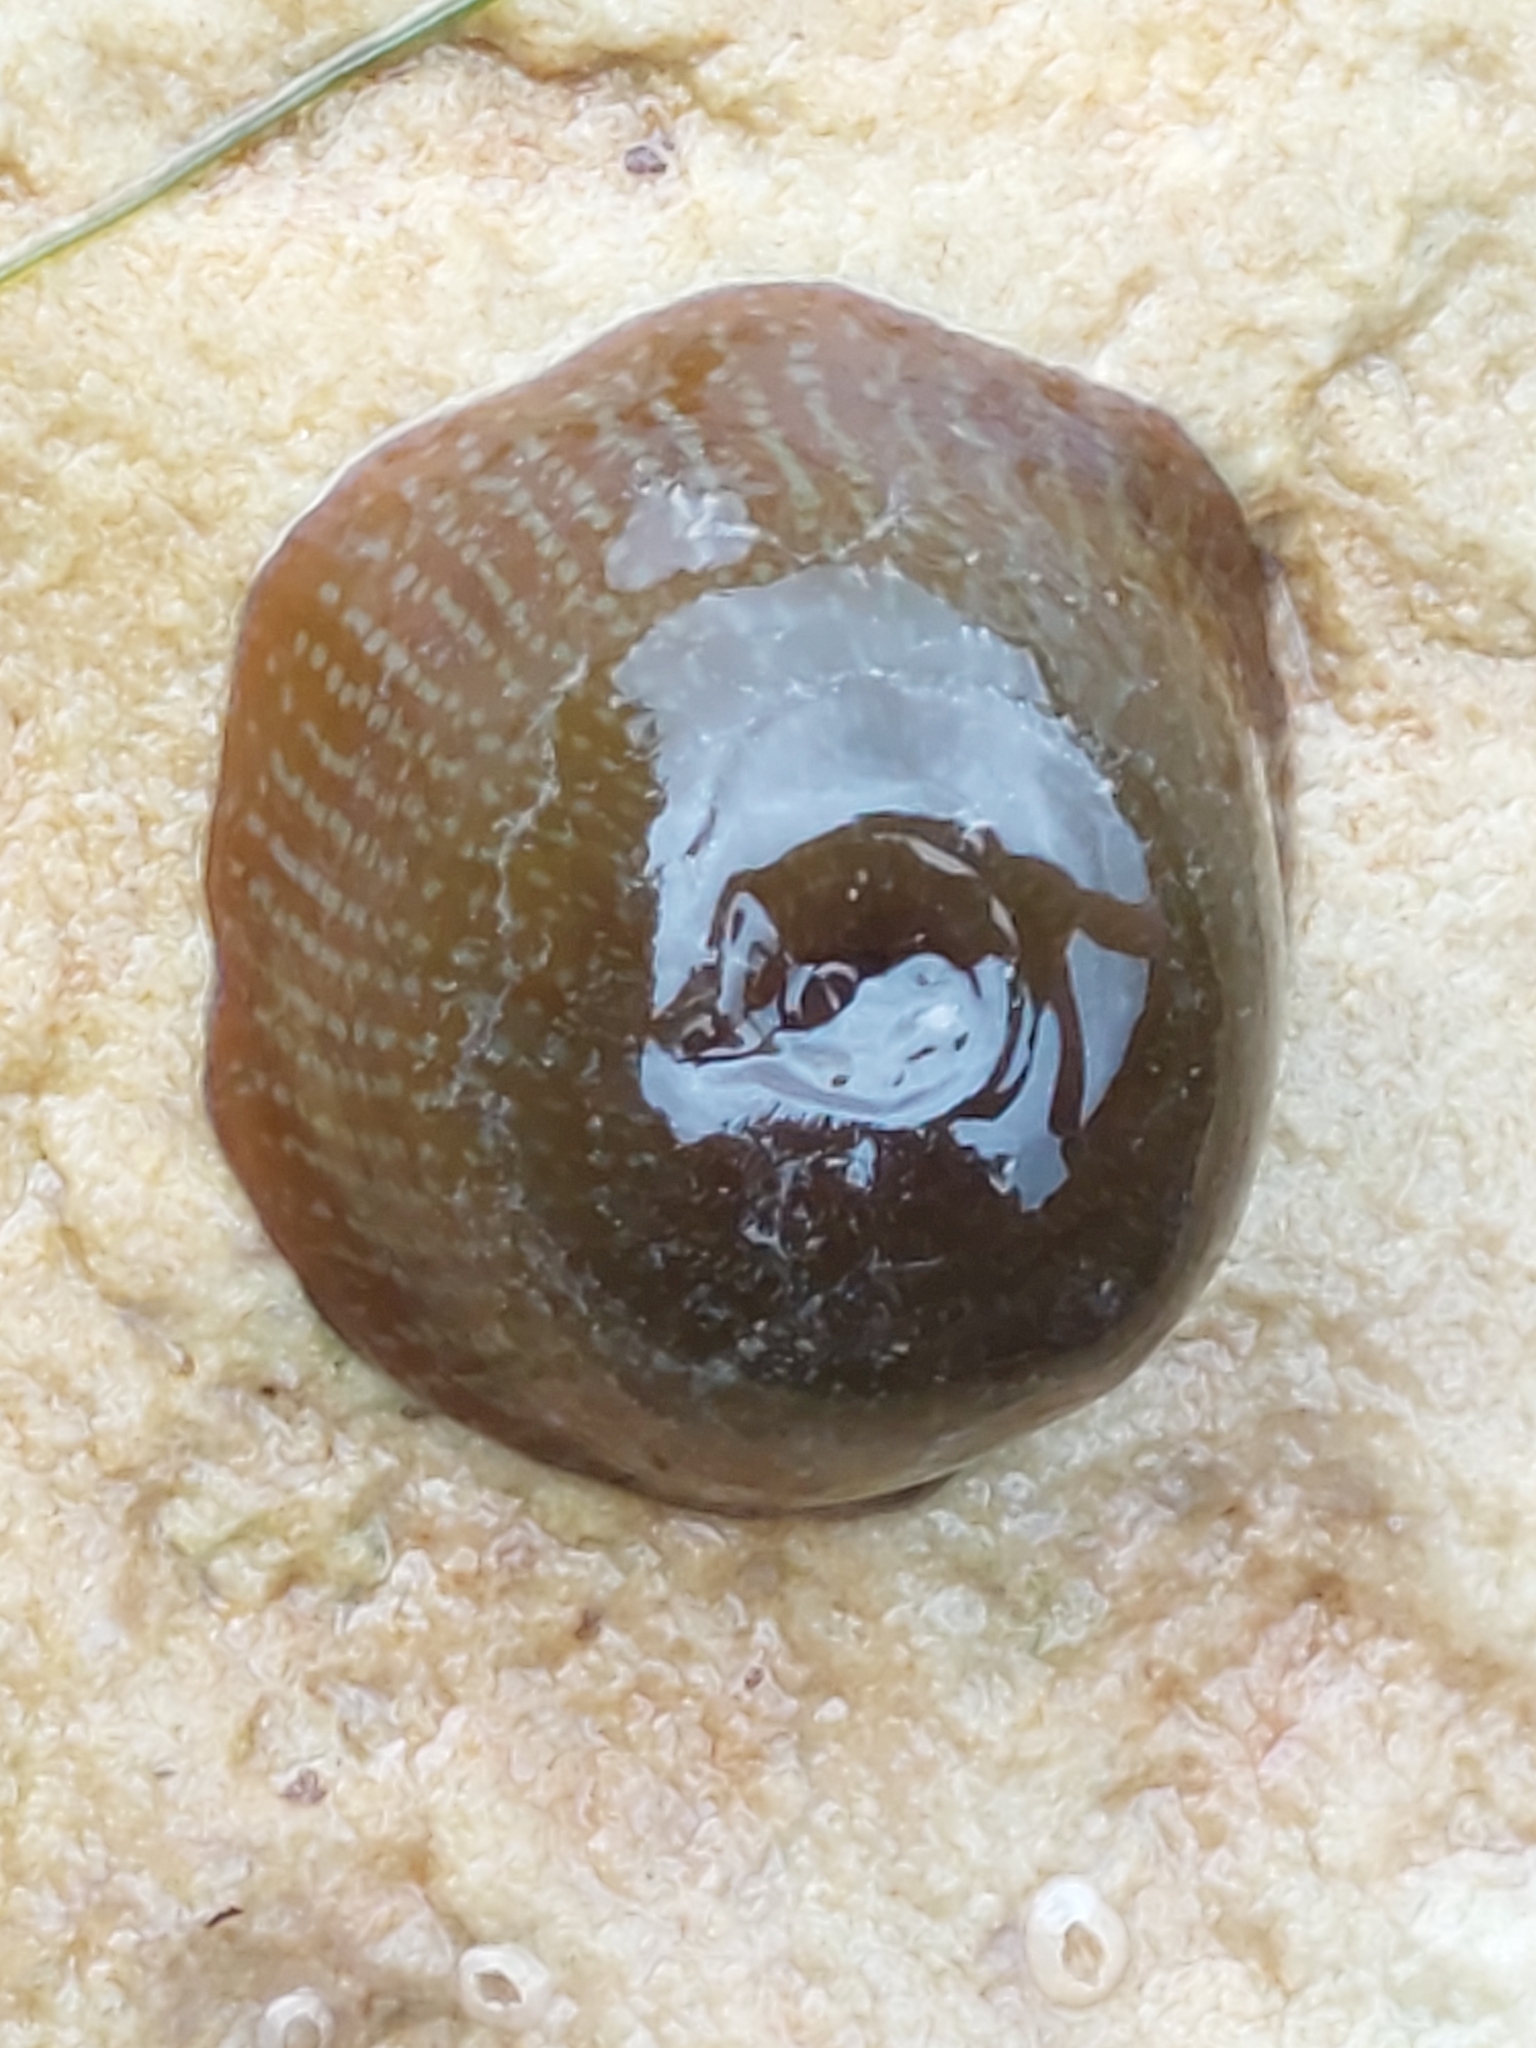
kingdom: Animalia
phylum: Cnidaria
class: Anthozoa
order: Actiniaria
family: Actiniidae
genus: Actinia
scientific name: Actinia equina
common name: Beadlet anemone
